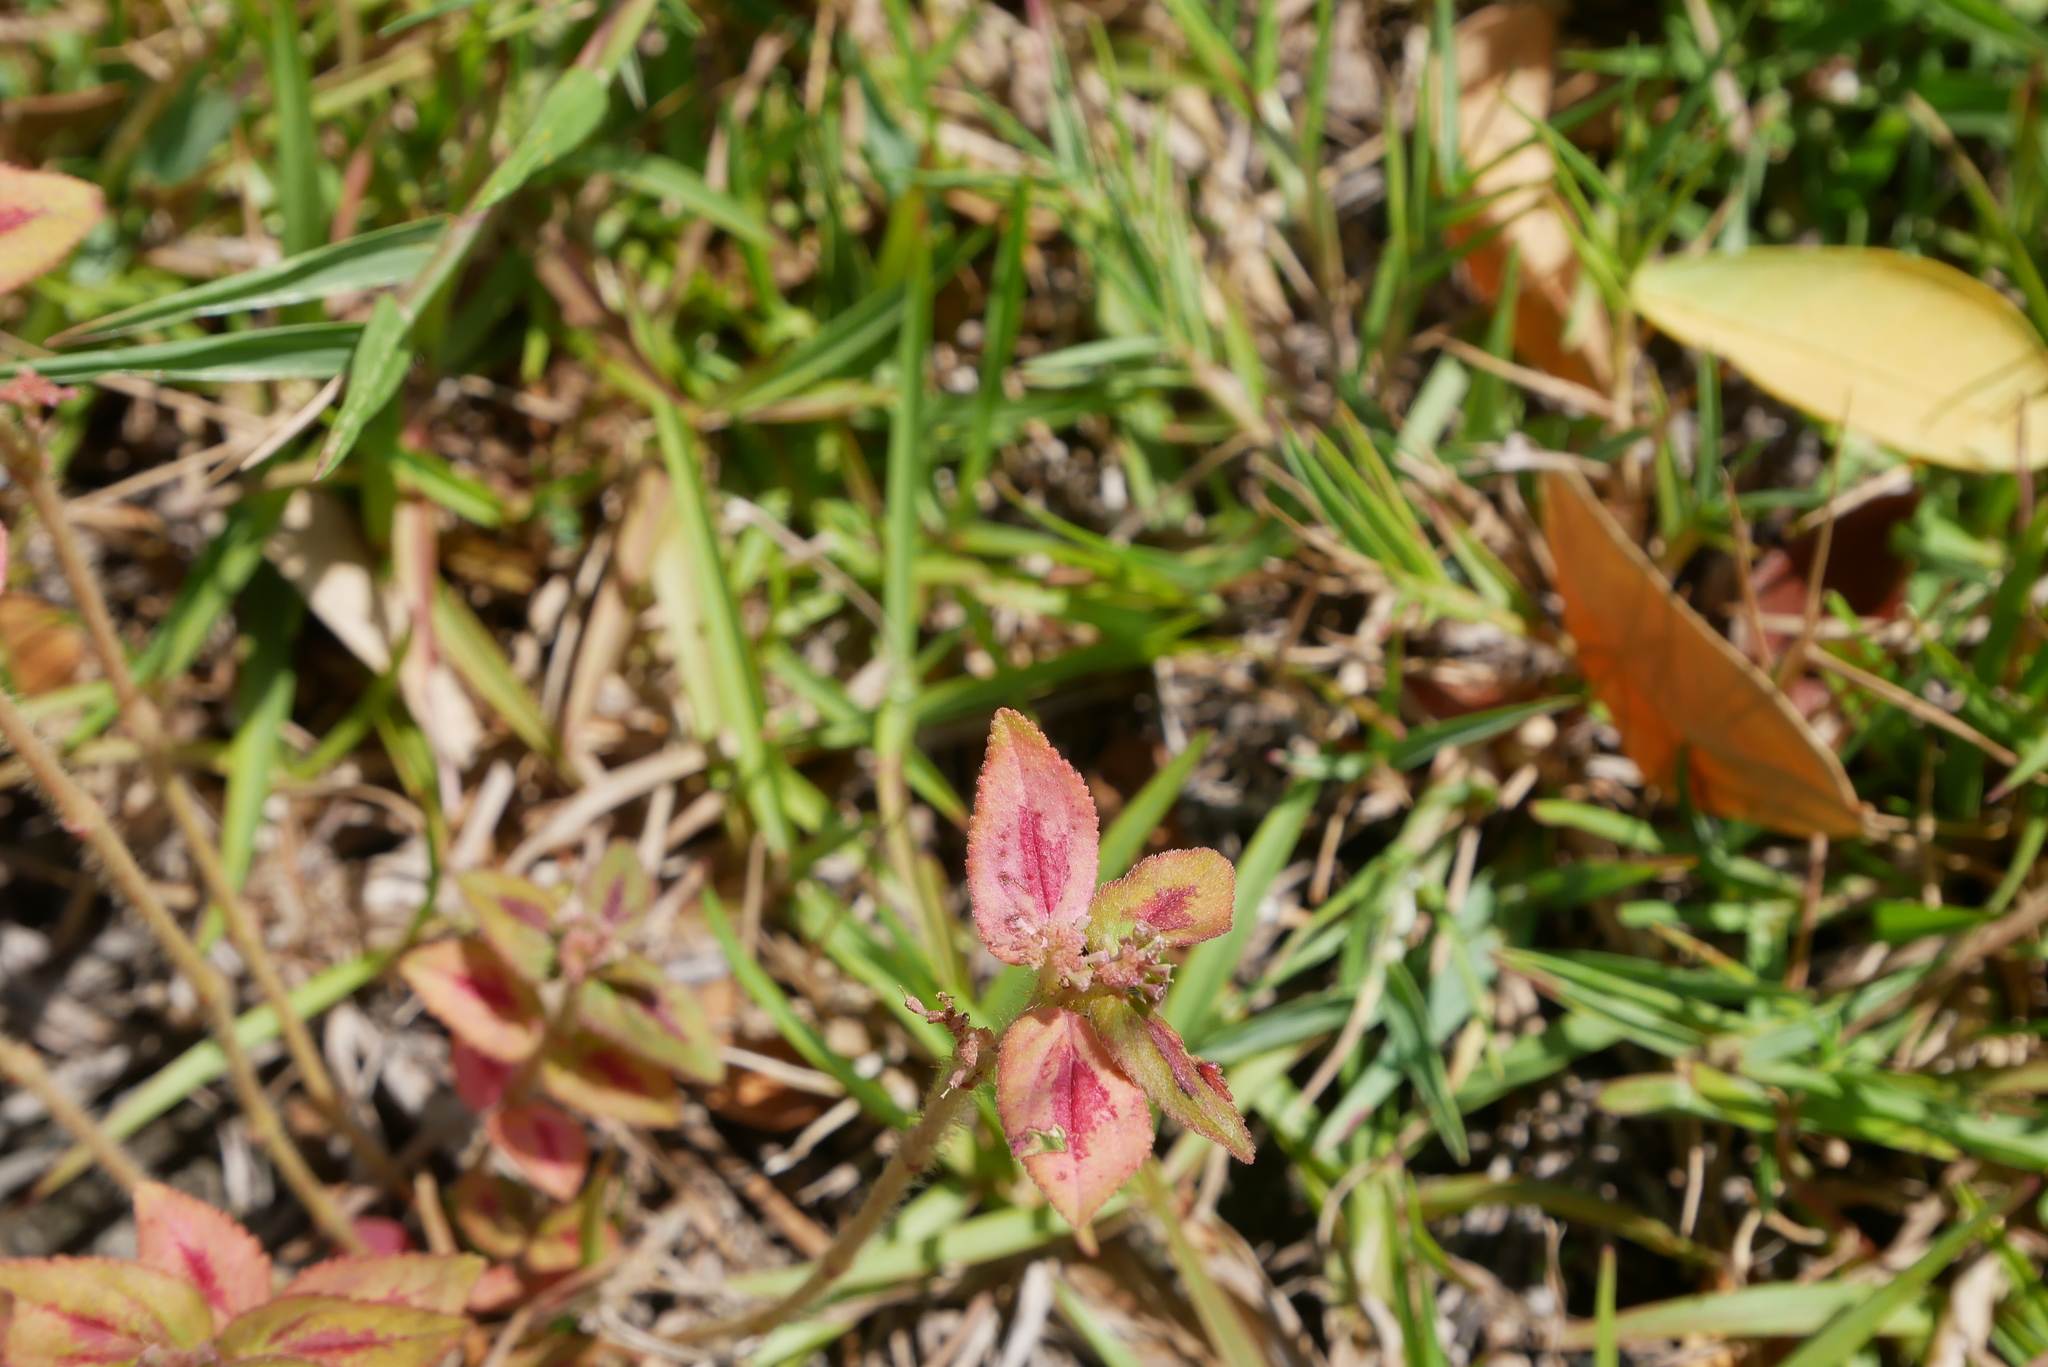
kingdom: Plantae
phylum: Tracheophyta
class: Magnoliopsida
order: Malpighiales
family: Euphorbiaceae
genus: Euphorbia
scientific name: Euphorbia hirta
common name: Pillpod sandmat
